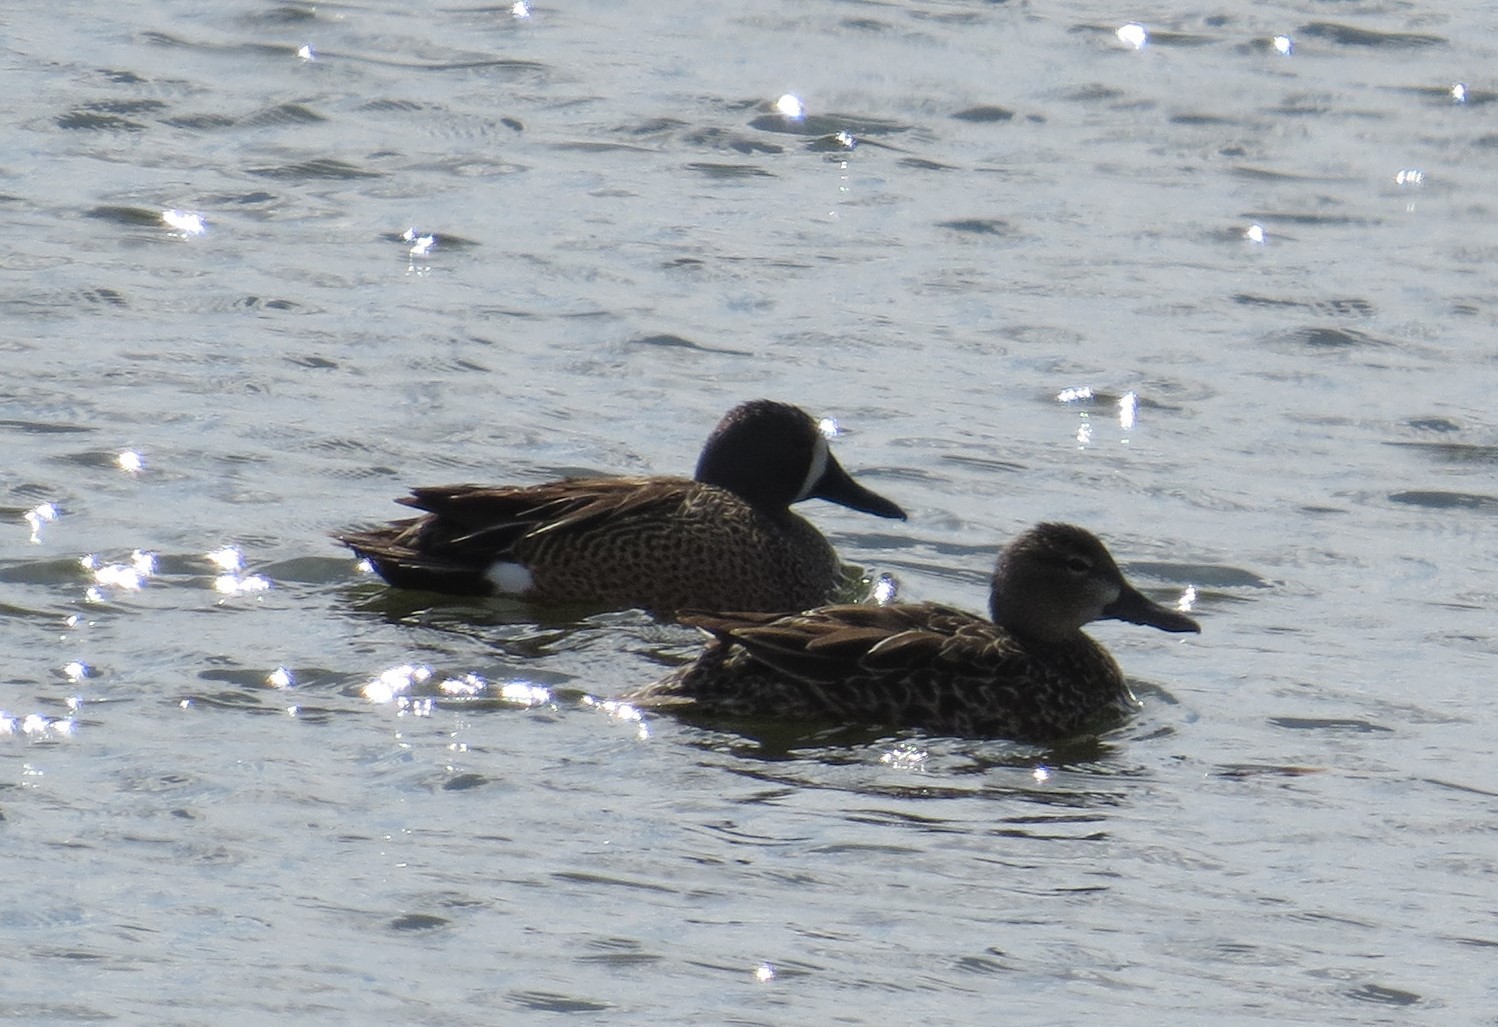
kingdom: Animalia
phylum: Chordata
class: Aves
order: Anseriformes
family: Anatidae
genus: Spatula
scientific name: Spatula discors
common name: Blue-winged teal
